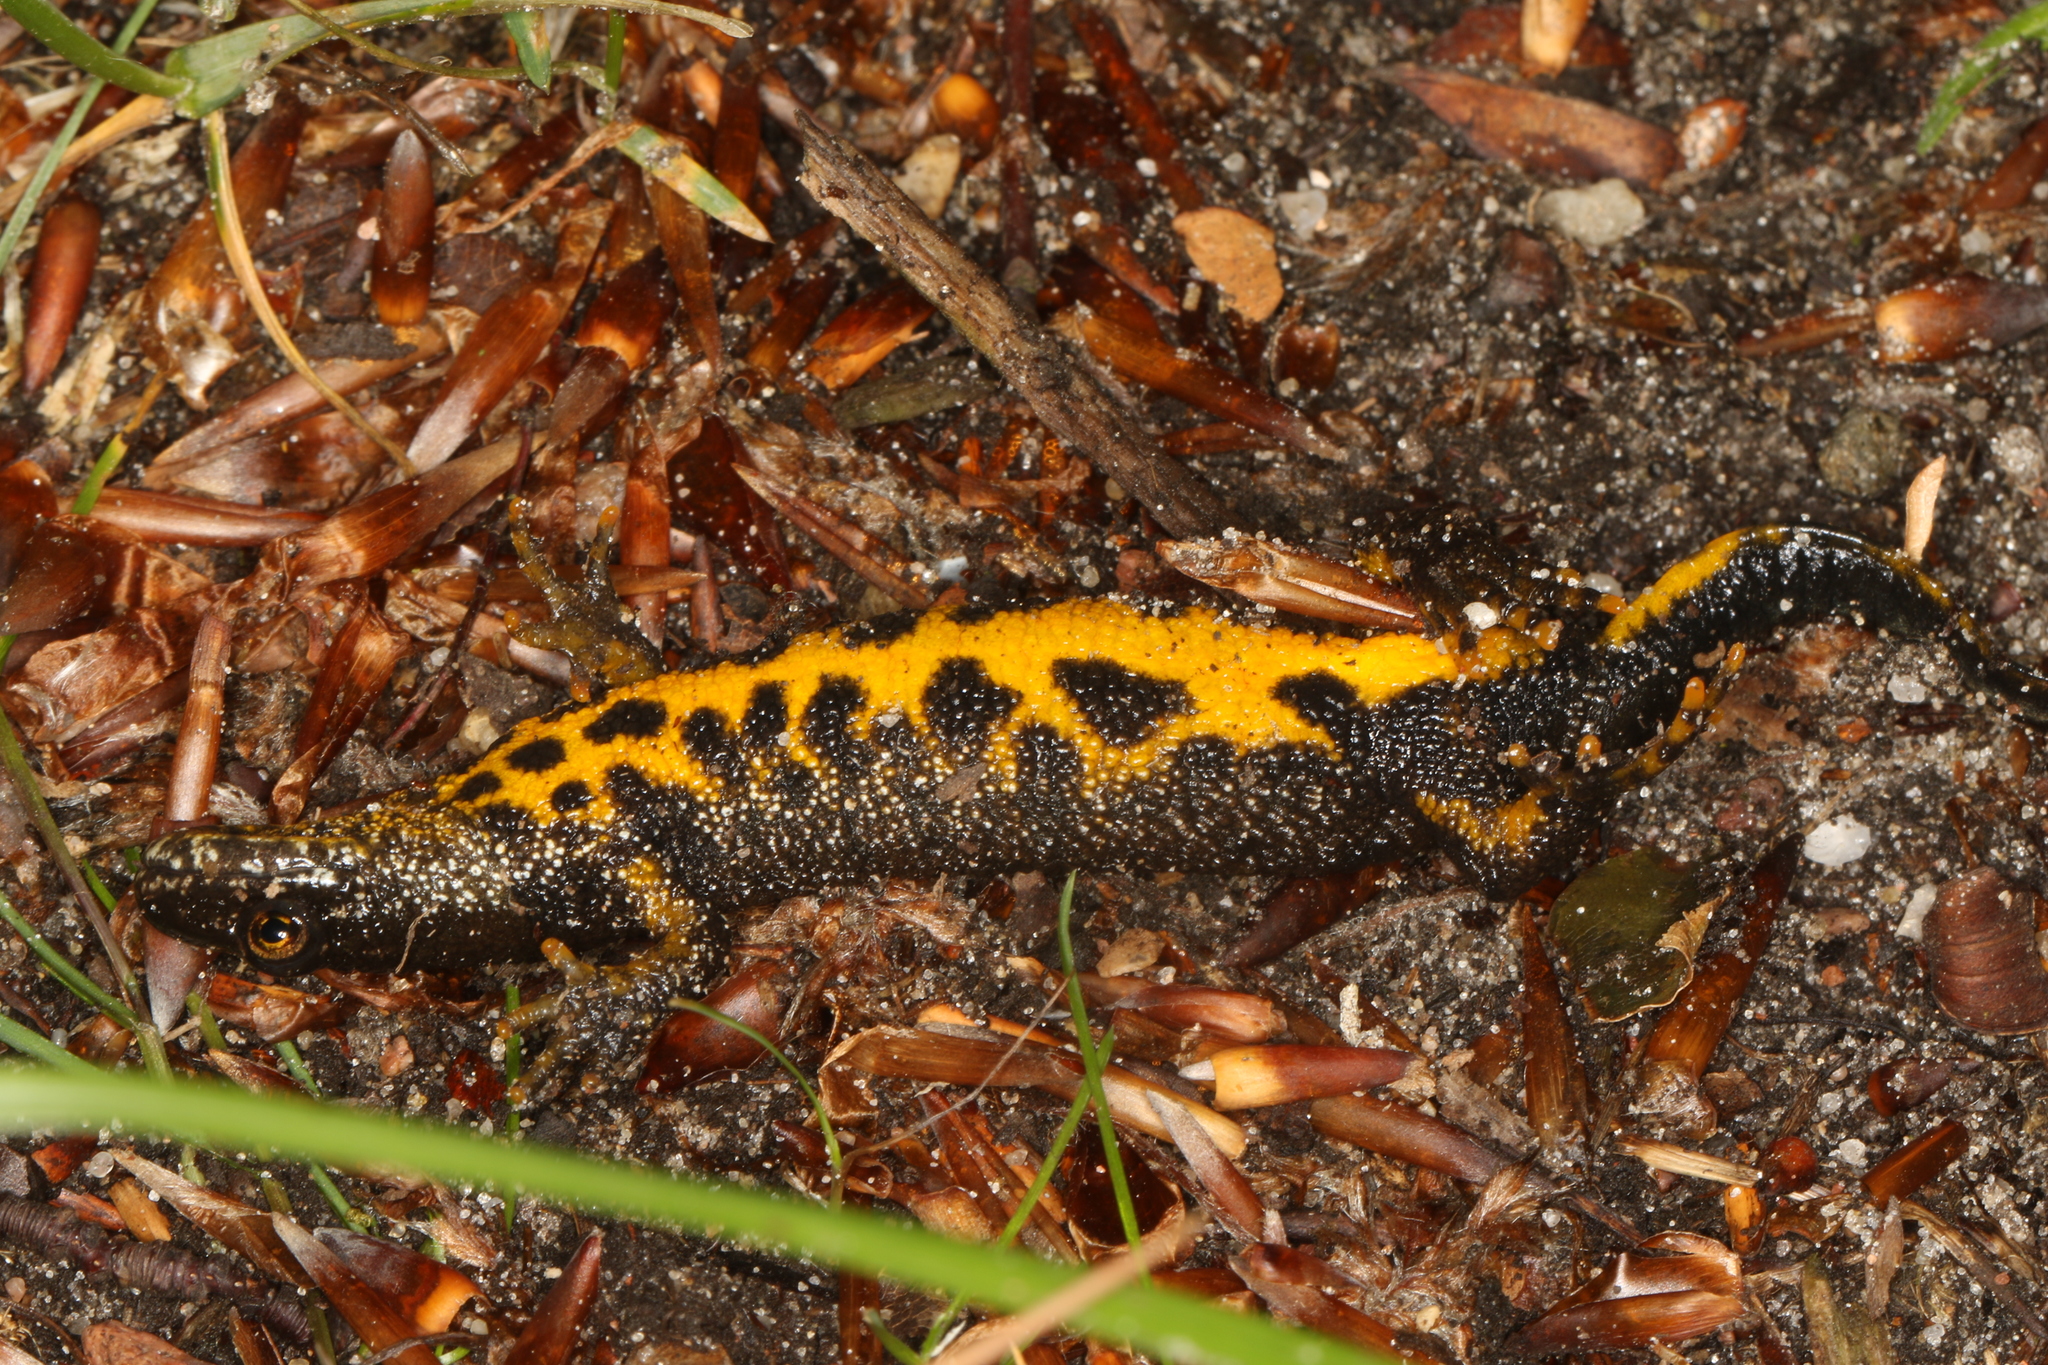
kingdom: Animalia
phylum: Chordata
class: Amphibia
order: Caudata
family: Salamandridae
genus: Triturus
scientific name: Triturus cristatus
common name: Crested newt
